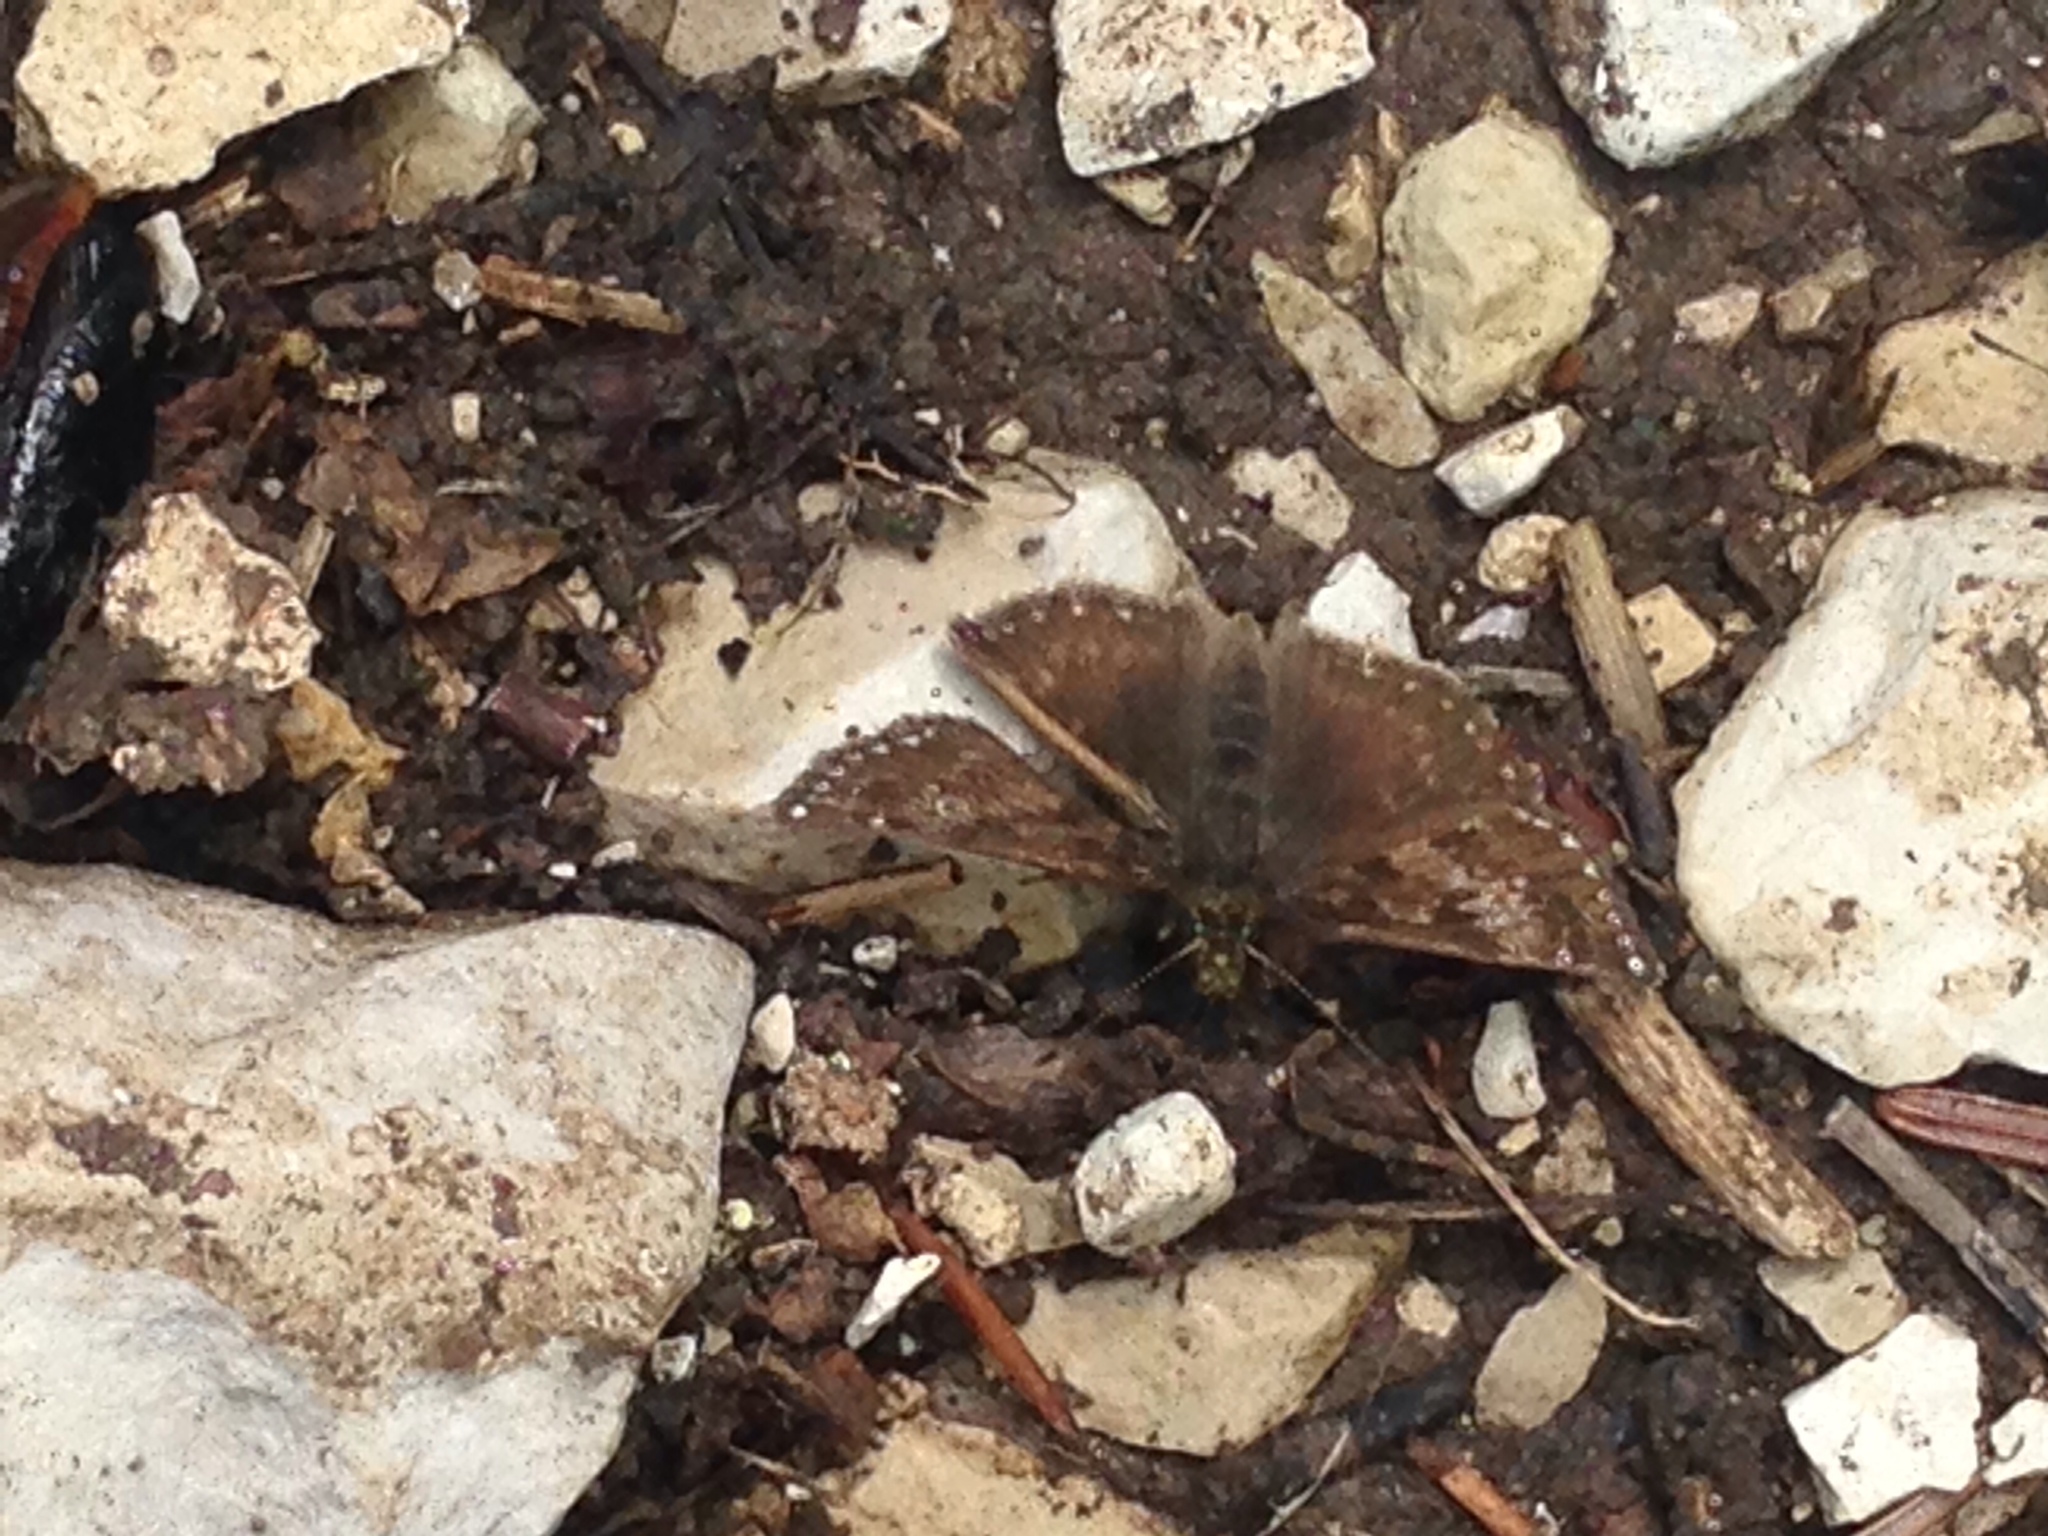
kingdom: Animalia
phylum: Arthropoda
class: Insecta
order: Lepidoptera
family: Hesperiidae
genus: Erynnis
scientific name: Erynnis tages
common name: Dingy skipper
